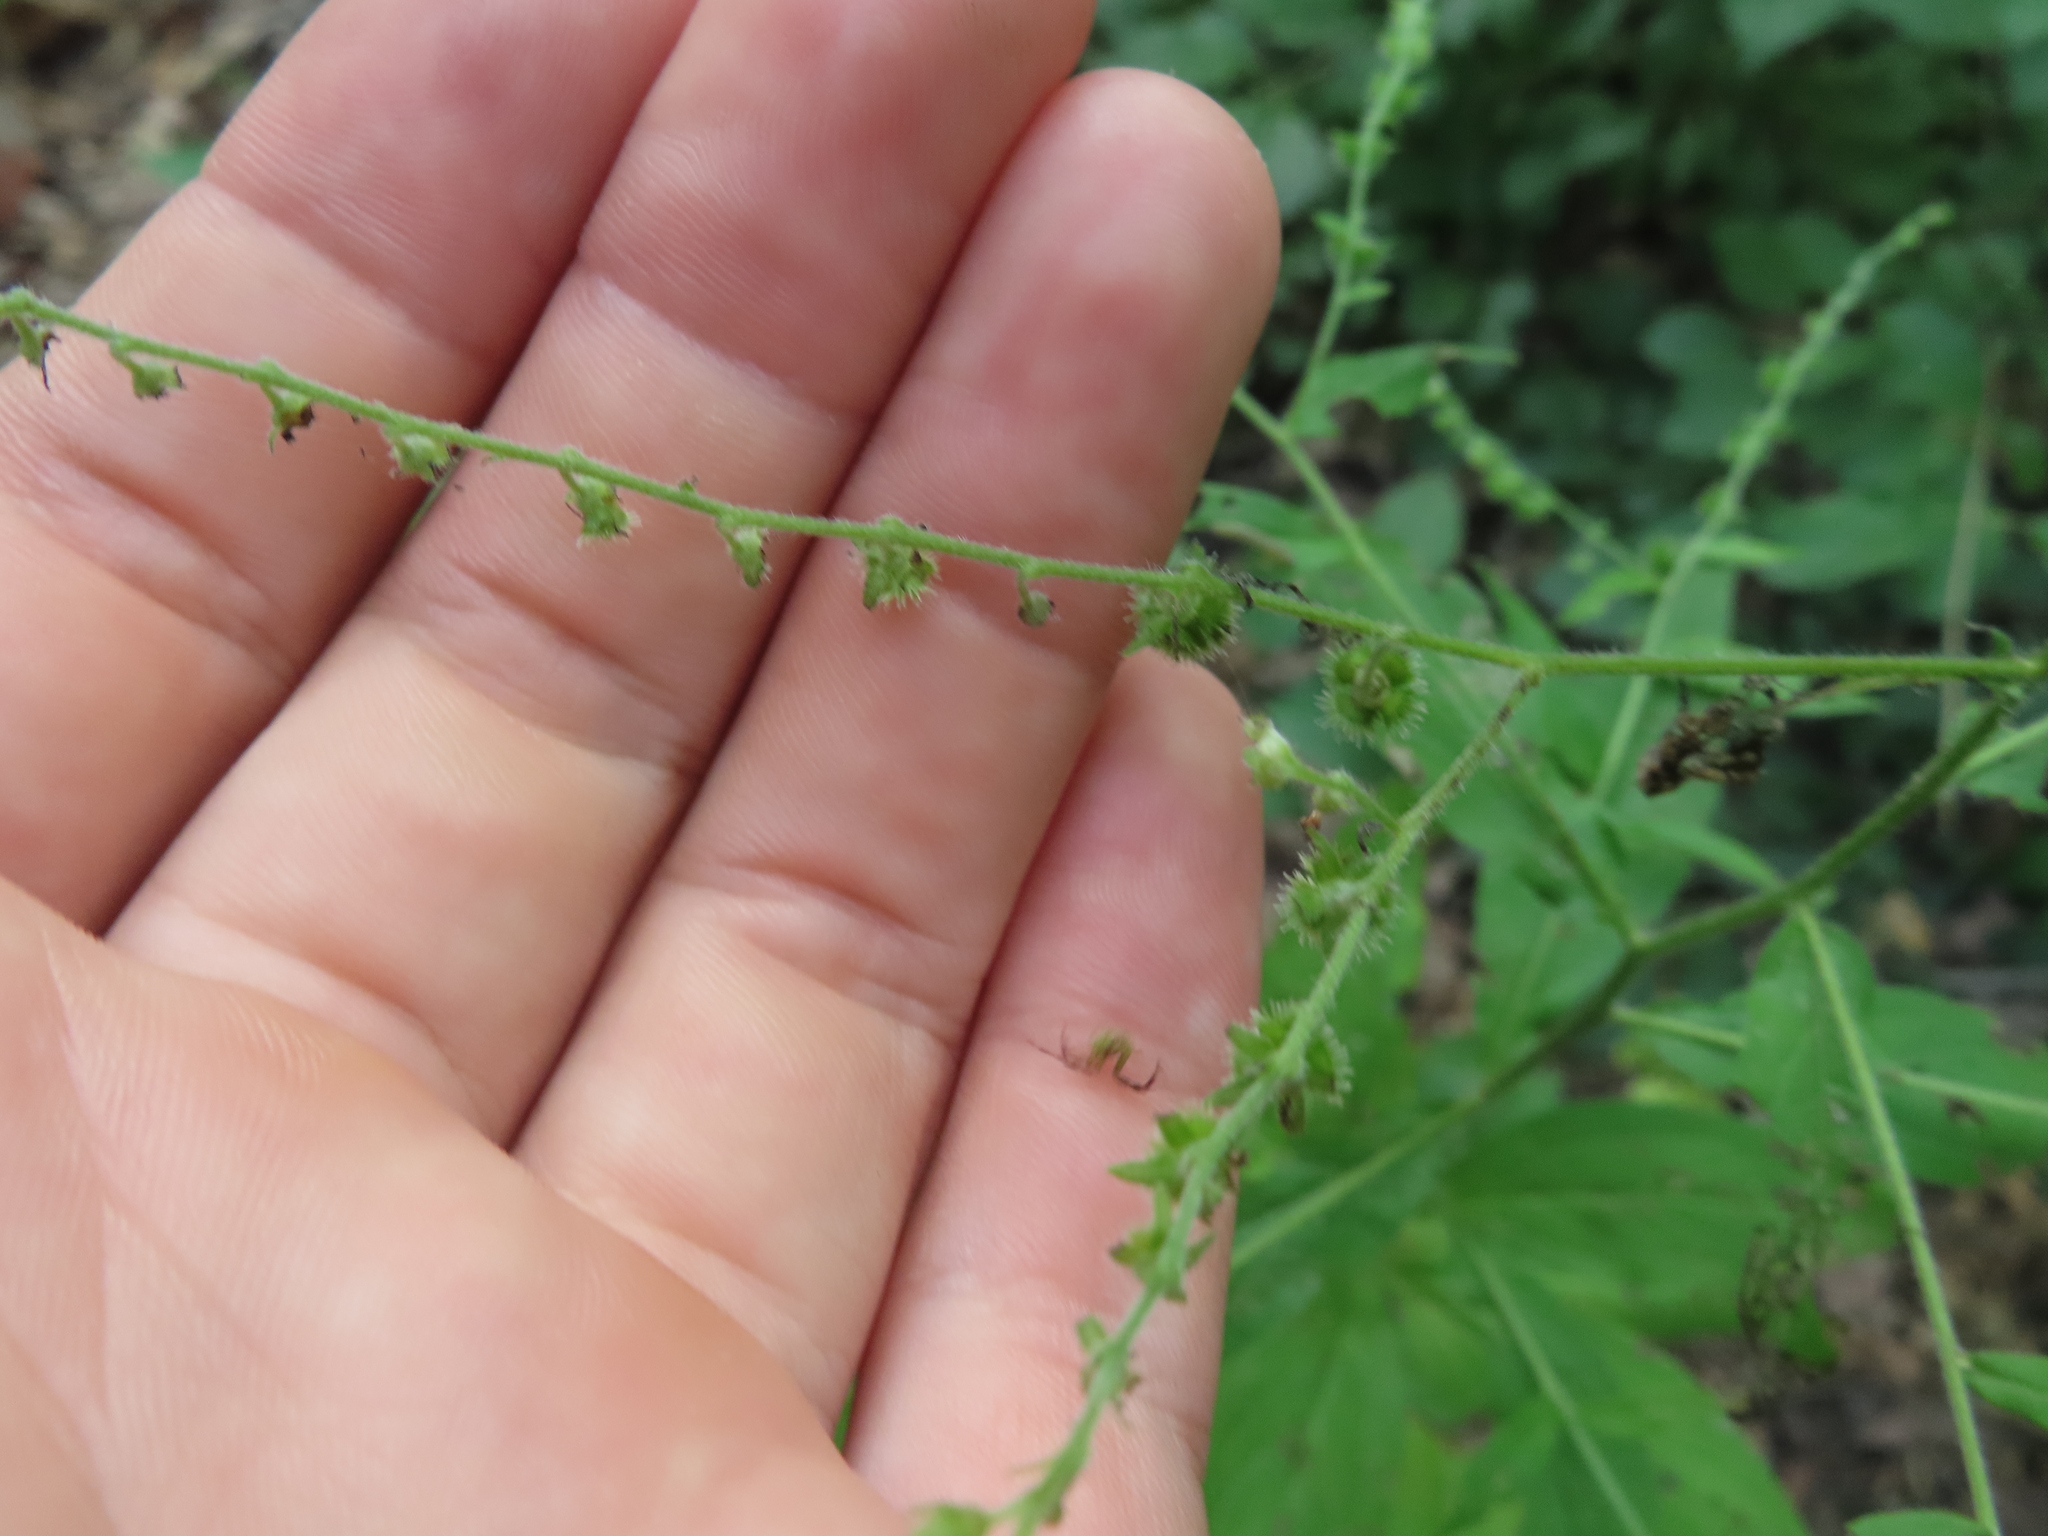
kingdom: Plantae
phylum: Tracheophyta
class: Magnoliopsida
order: Boraginales
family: Boraginaceae
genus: Hackelia
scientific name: Hackelia virginiana
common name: Beggar's-lice
